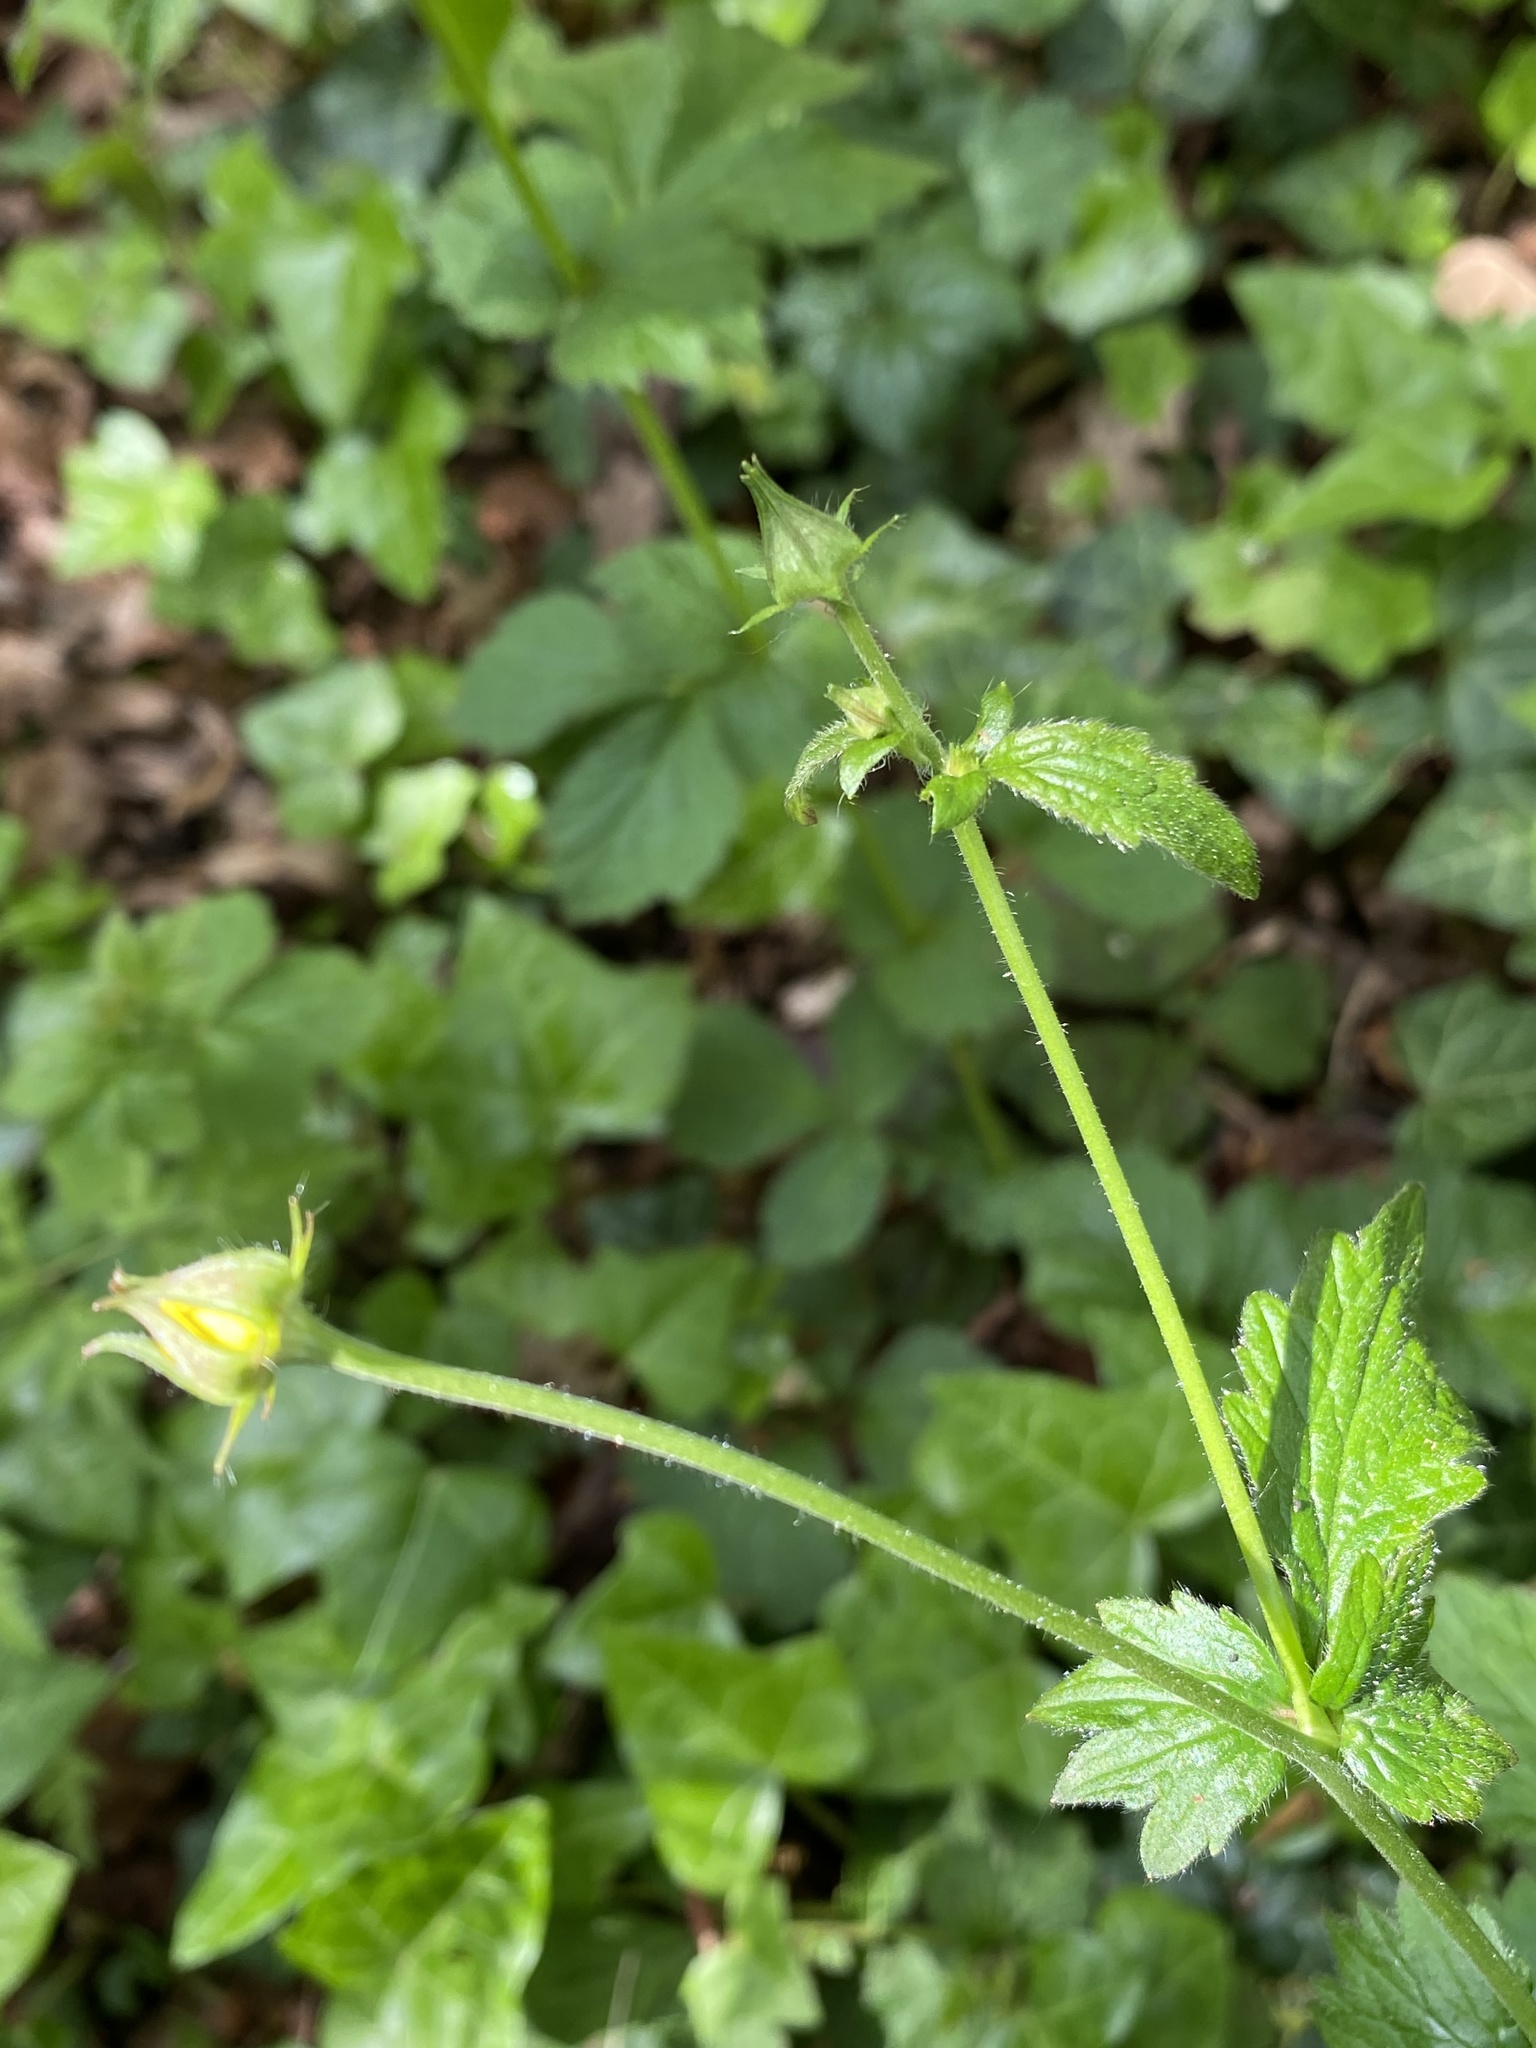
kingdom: Plantae
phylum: Tracheophyta
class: Magnoliopsida
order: Rosales
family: Rosaceae
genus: Geum
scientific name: Geum urbanum
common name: Wood avens
